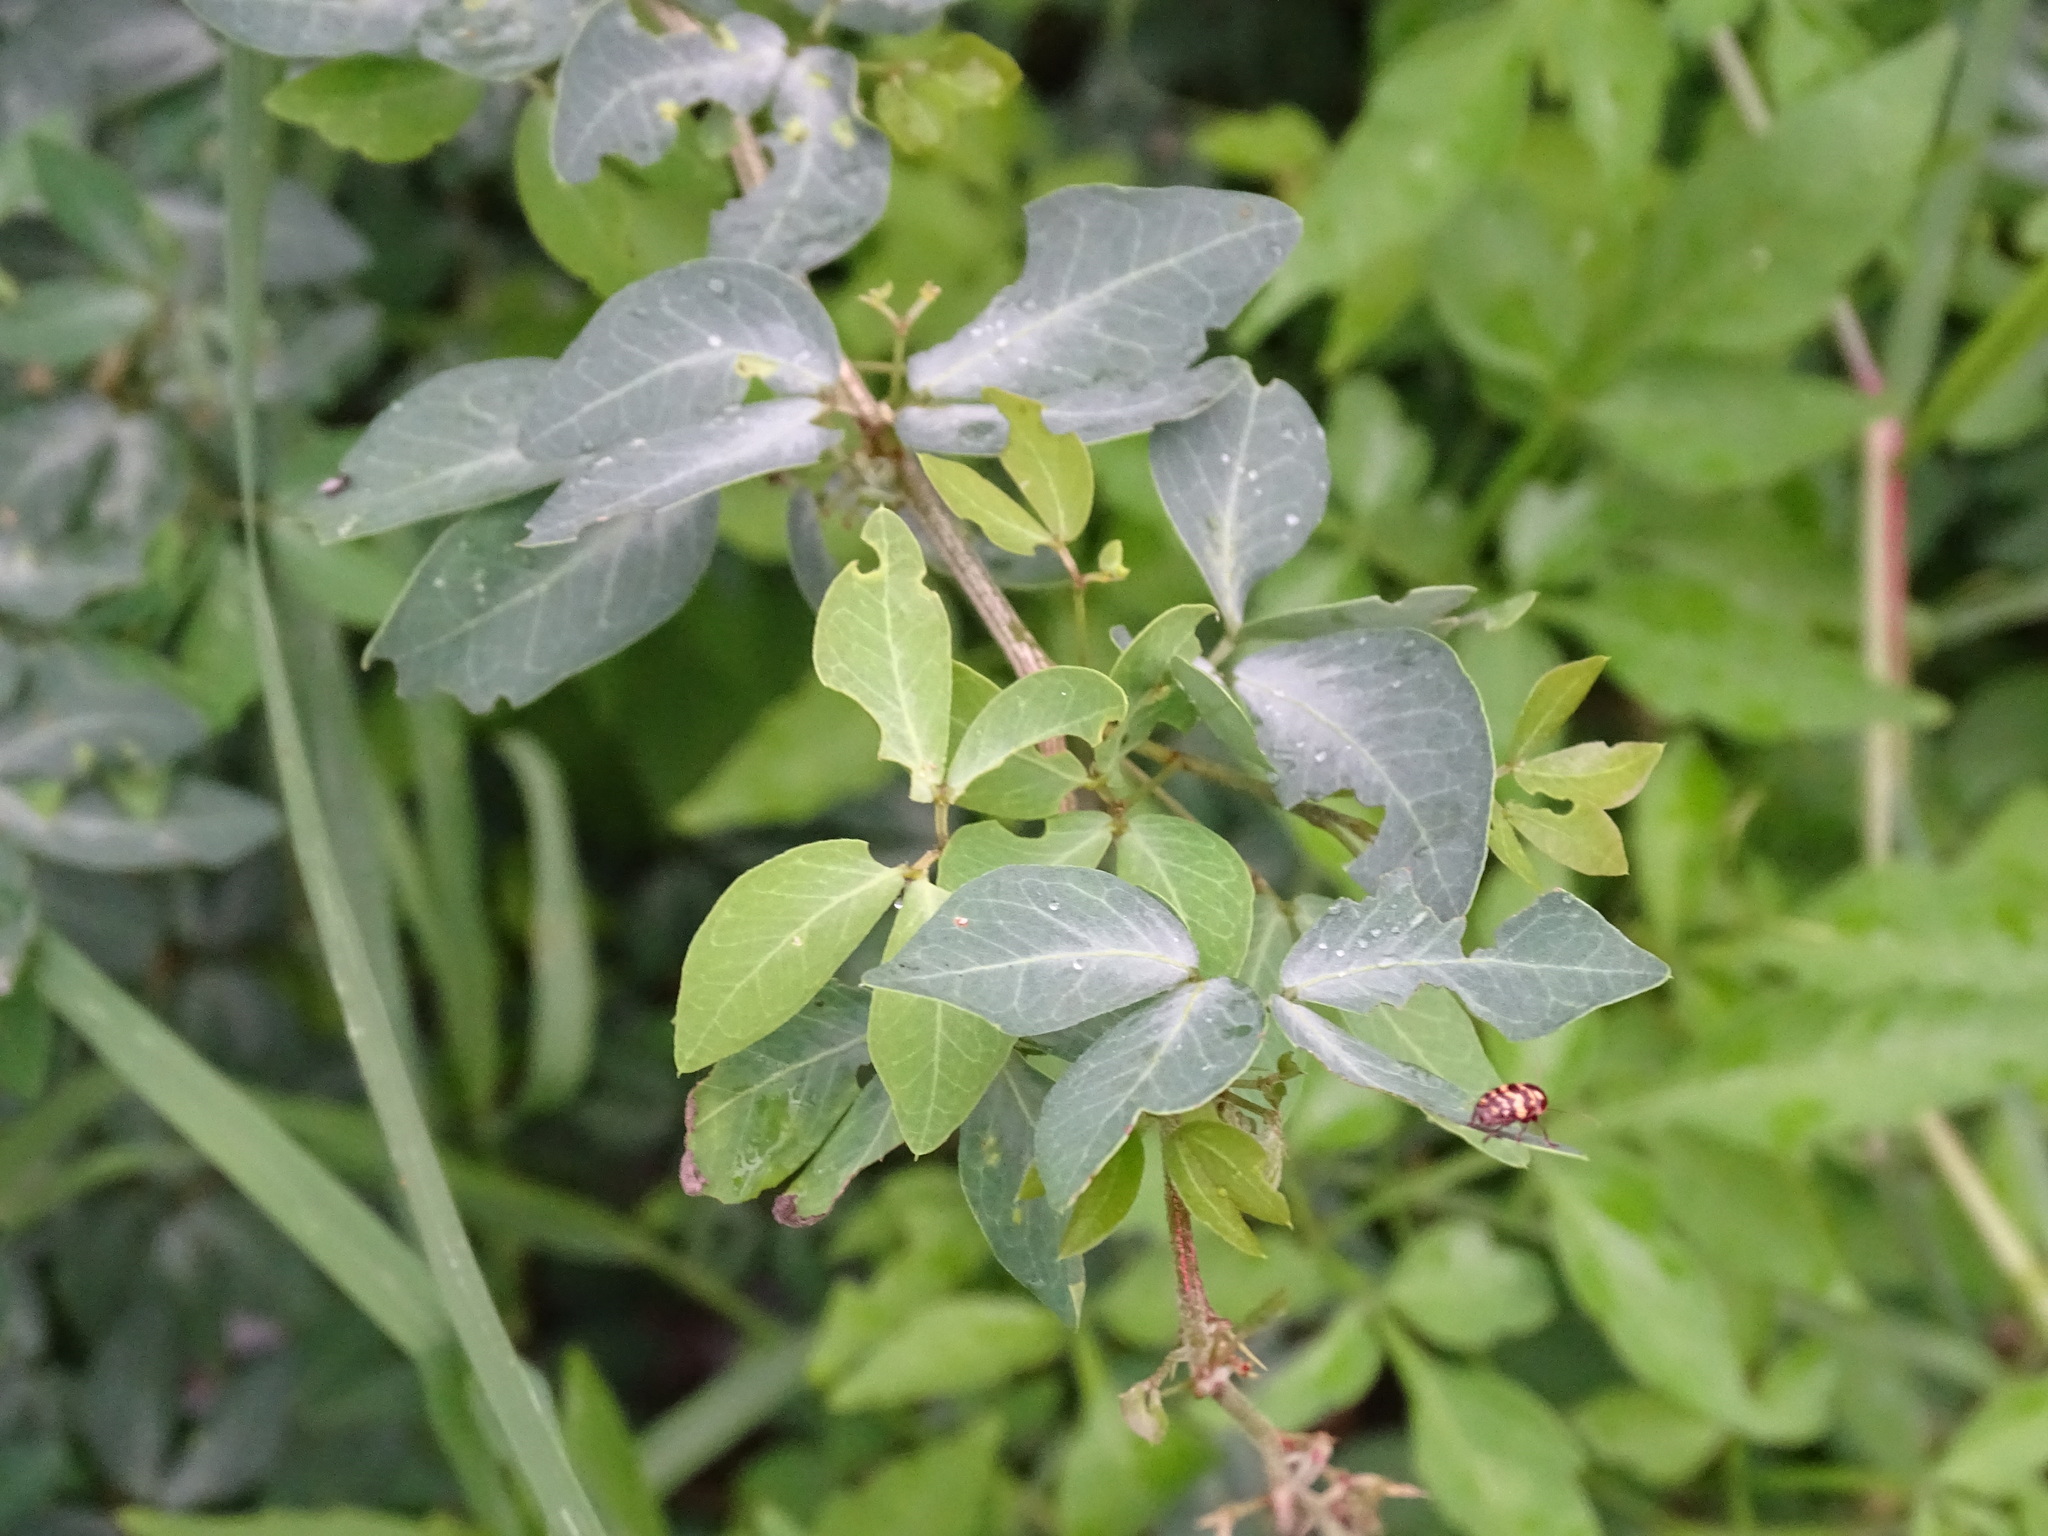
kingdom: Plantae
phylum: Tracheophyta
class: Magnoliopsida
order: Fabales
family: Fabaceae
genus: Pithecellobium
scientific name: Pithecellobium dulce
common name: Monkeypod
